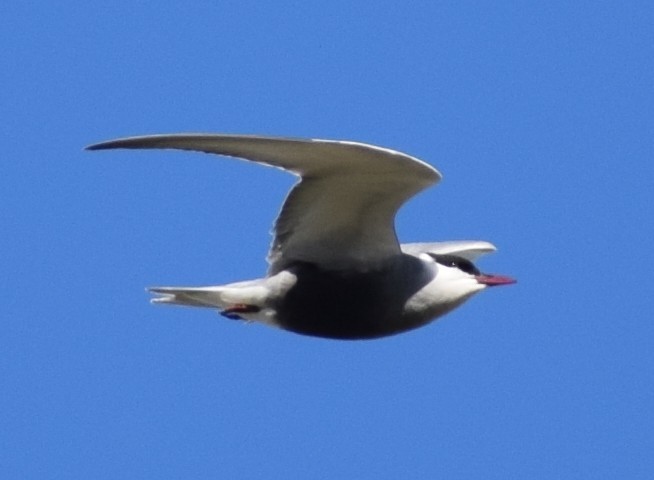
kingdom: Animalia
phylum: Chordata
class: Aves
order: Charadriiformes
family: Laridae
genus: Chlidonias
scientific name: Chlidonias hybrida
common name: Whiskered tern
